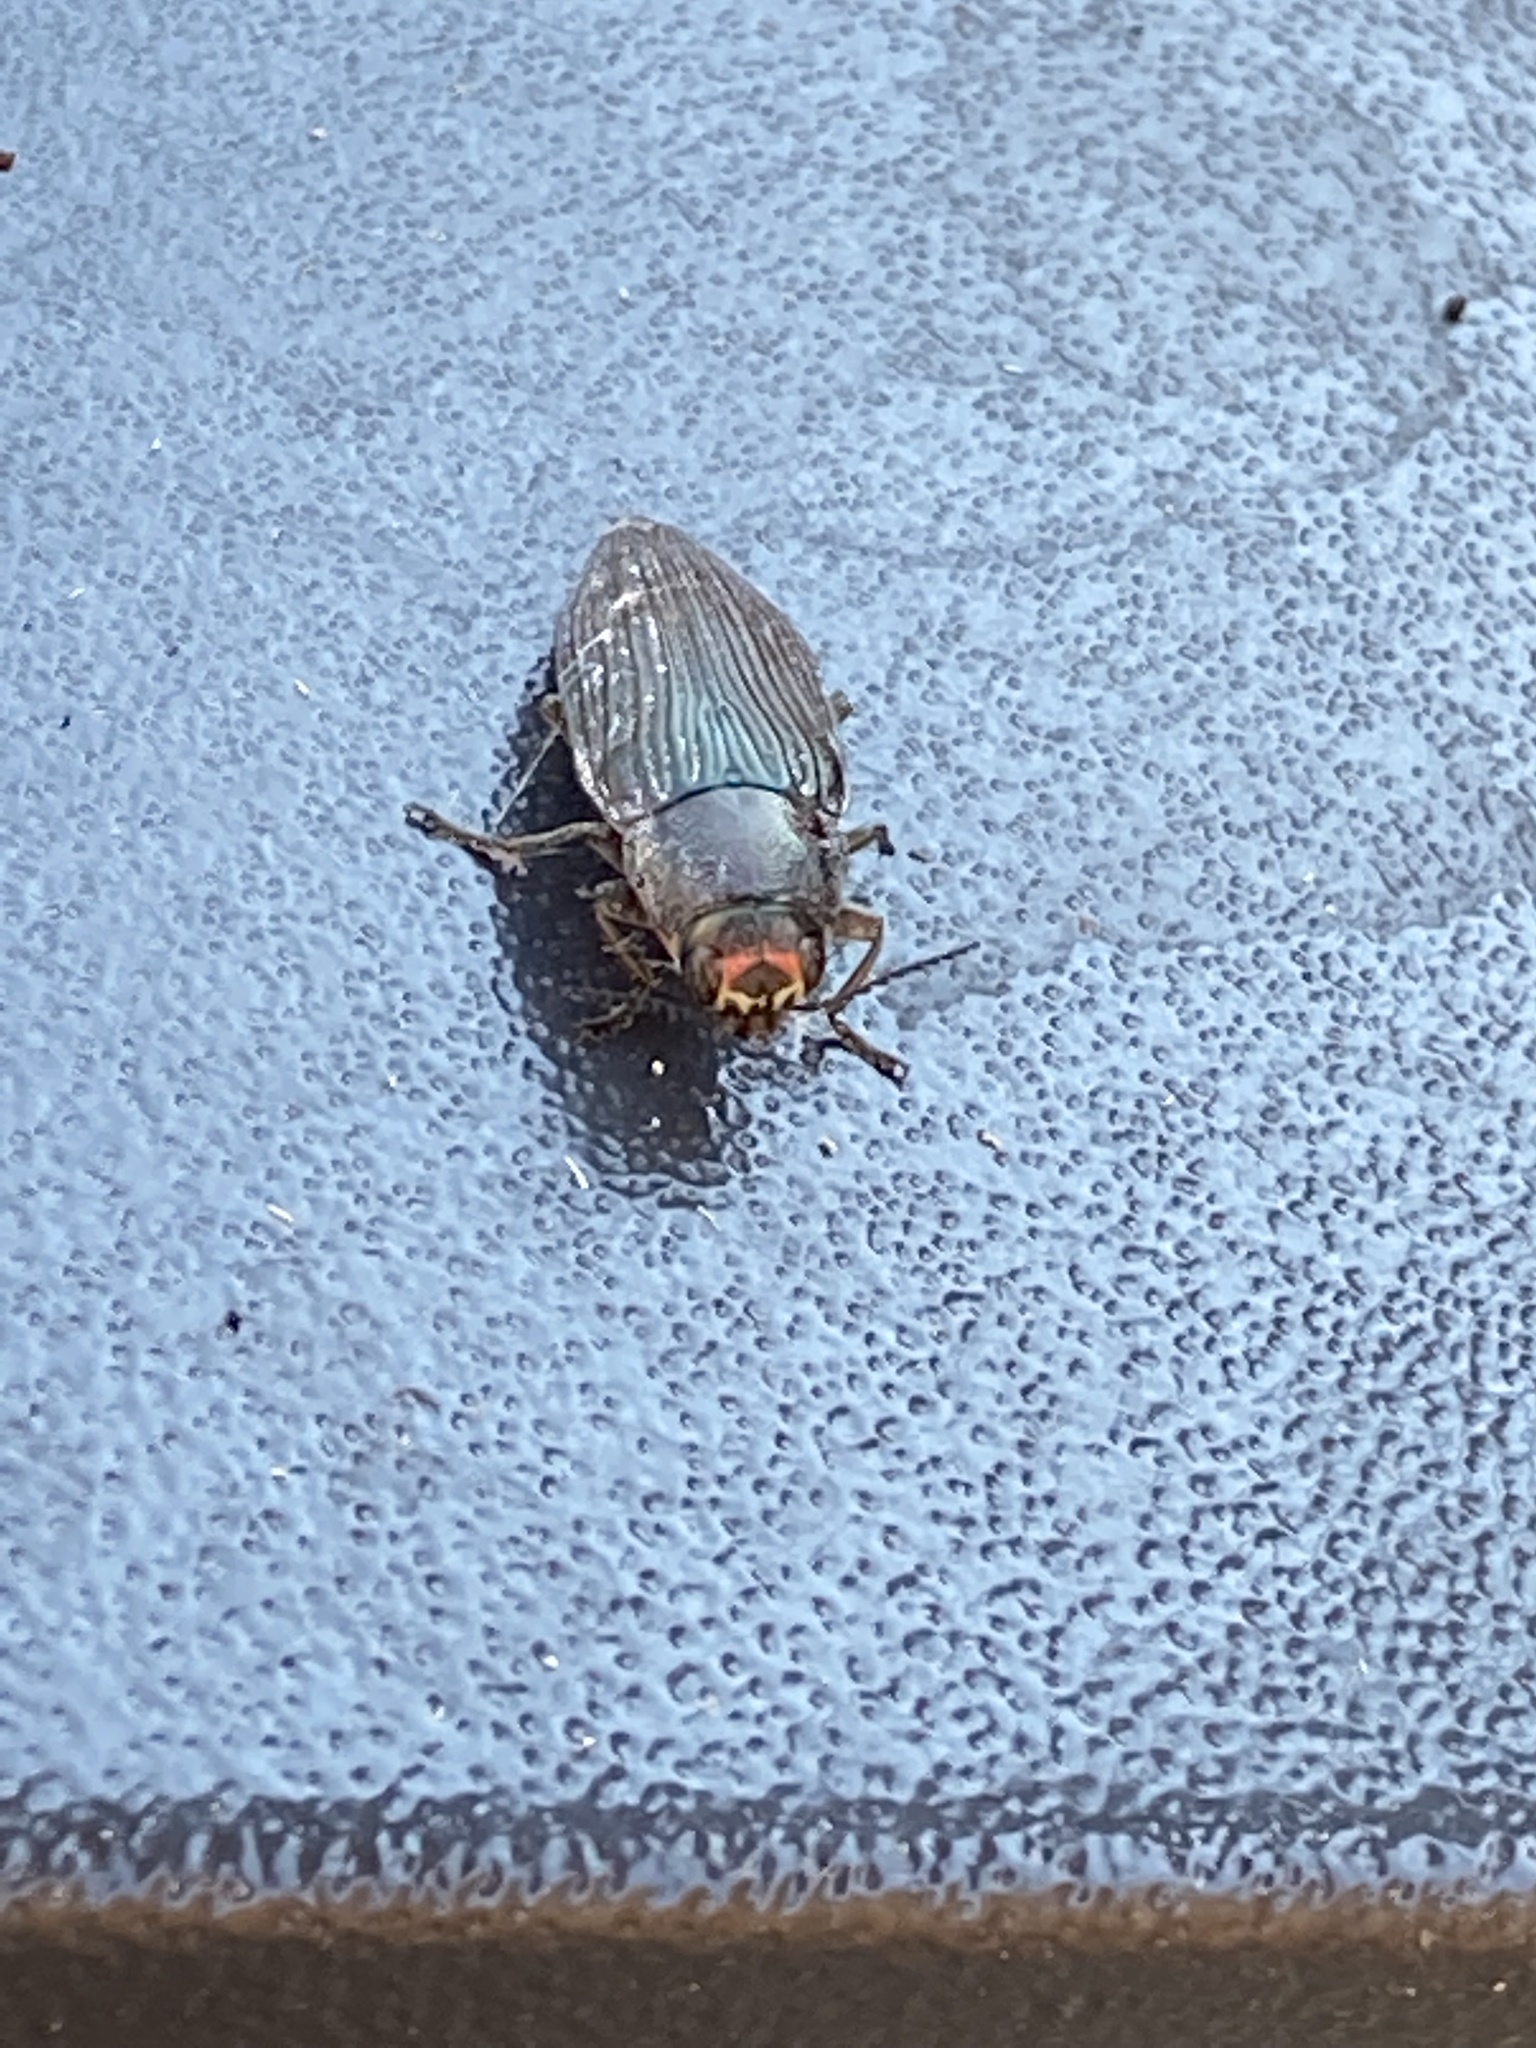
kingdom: Animalia
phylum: Arthropoda
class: Insecta
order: Coleoptera
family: Buprestidae
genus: Buprestis
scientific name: Buprestis lyrata
